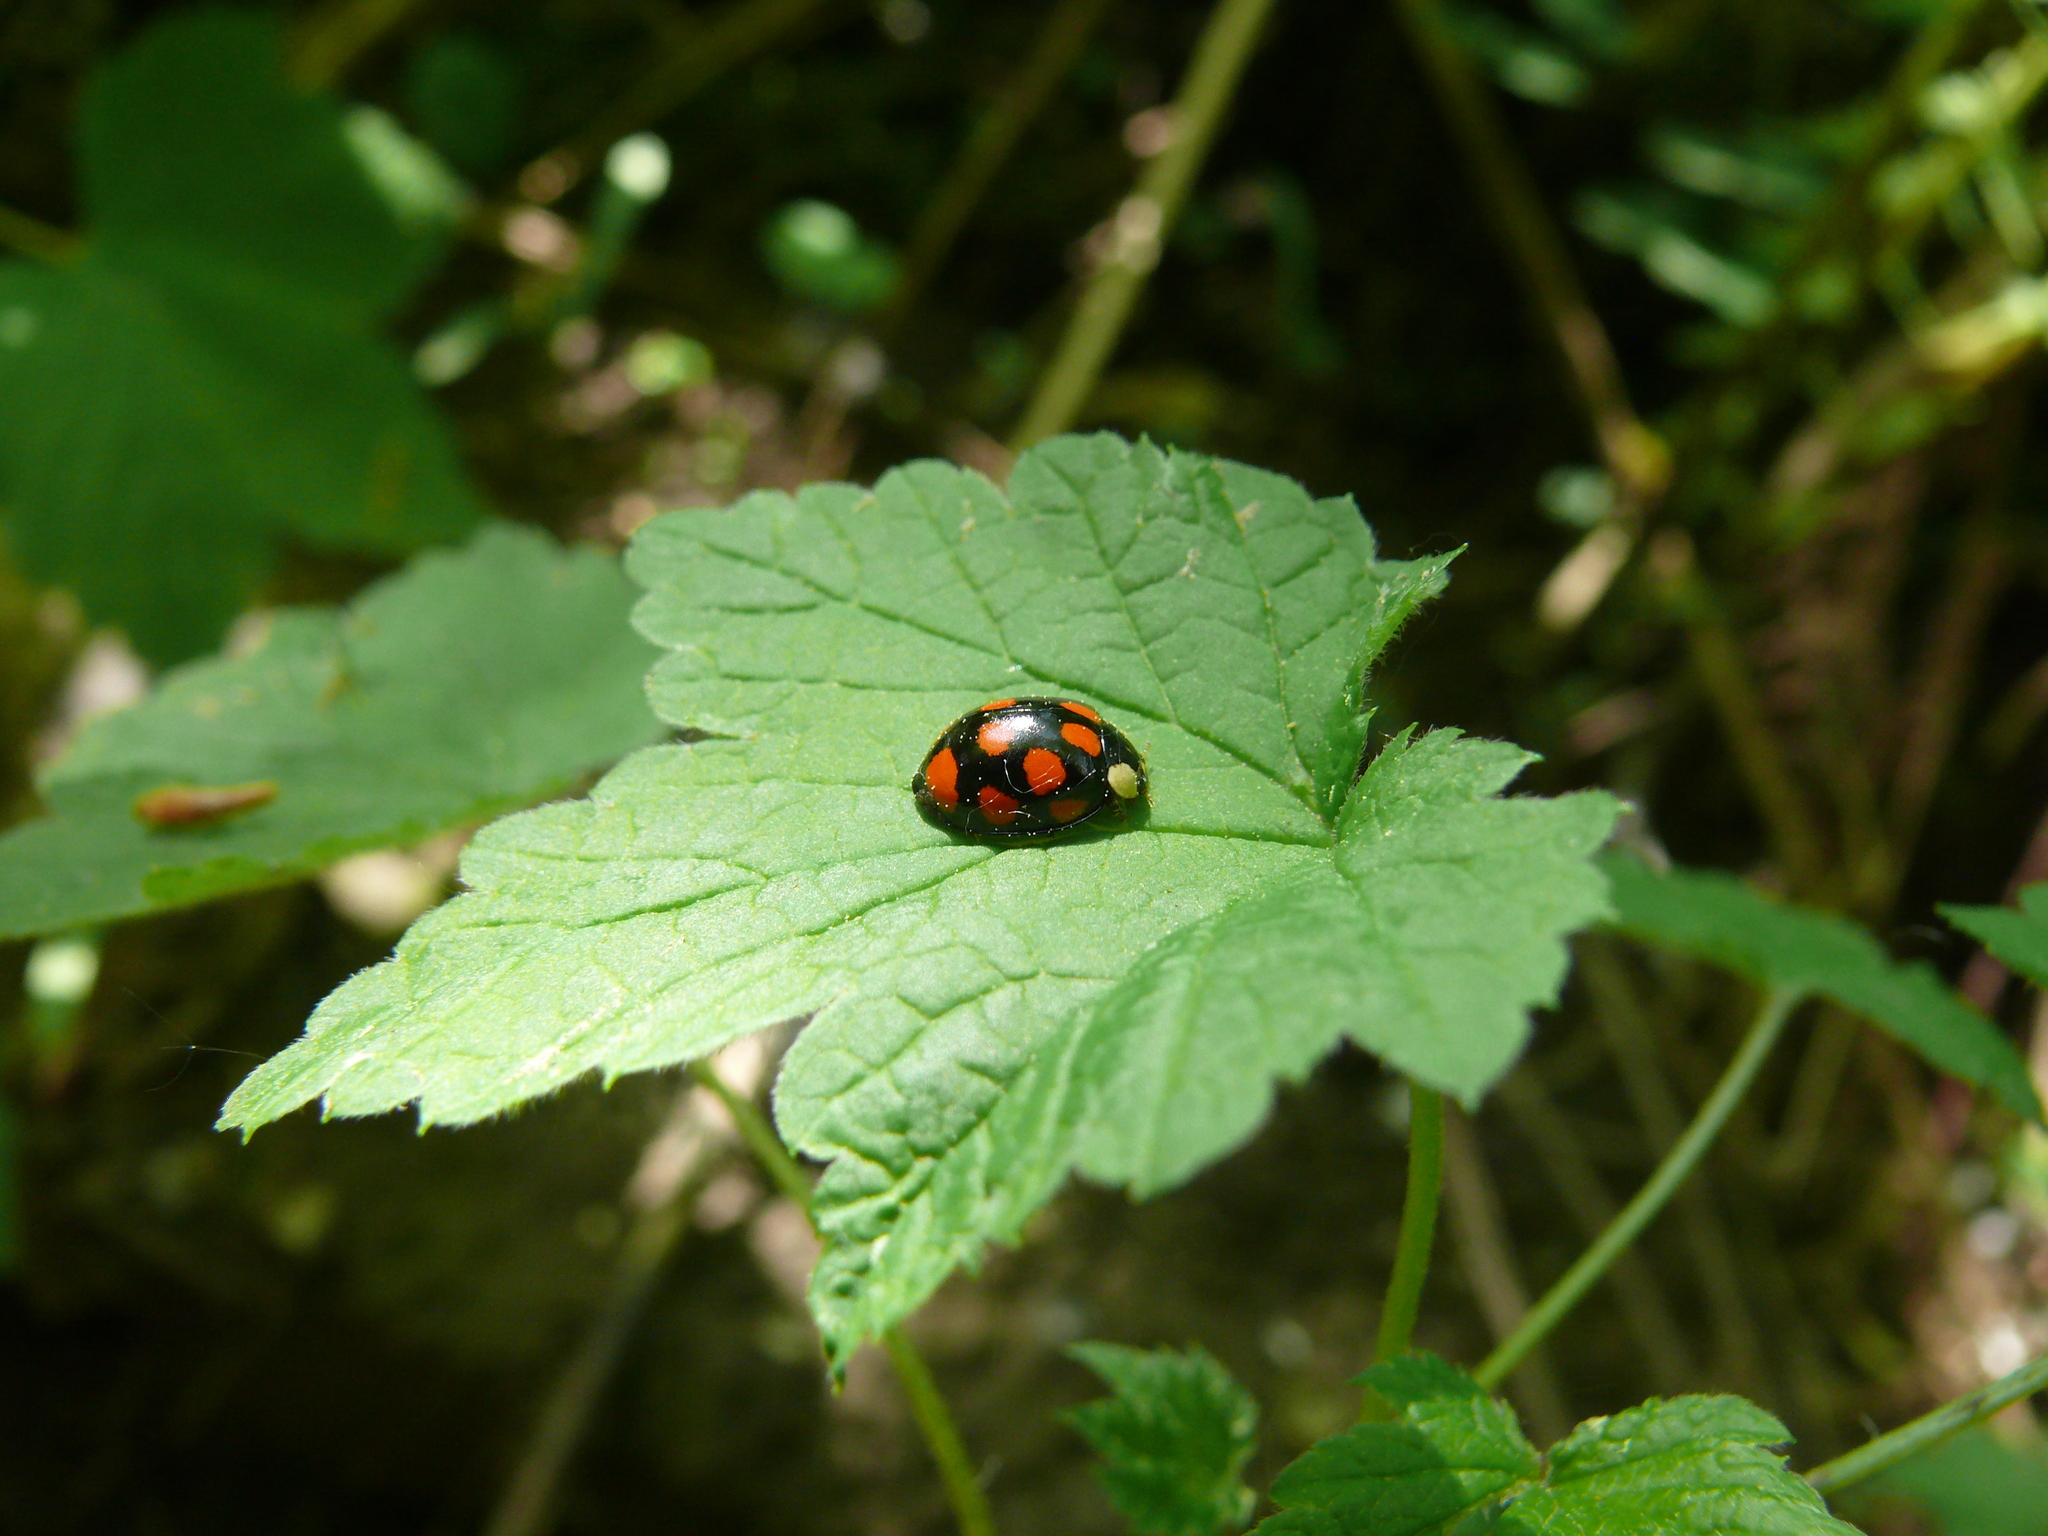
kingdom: Animalia
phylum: Arthropoda
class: Insecta
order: Coleoptera
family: Coccinellidae
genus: Harmonia
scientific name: Harmonia axyridis
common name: Harlequin ladybird
